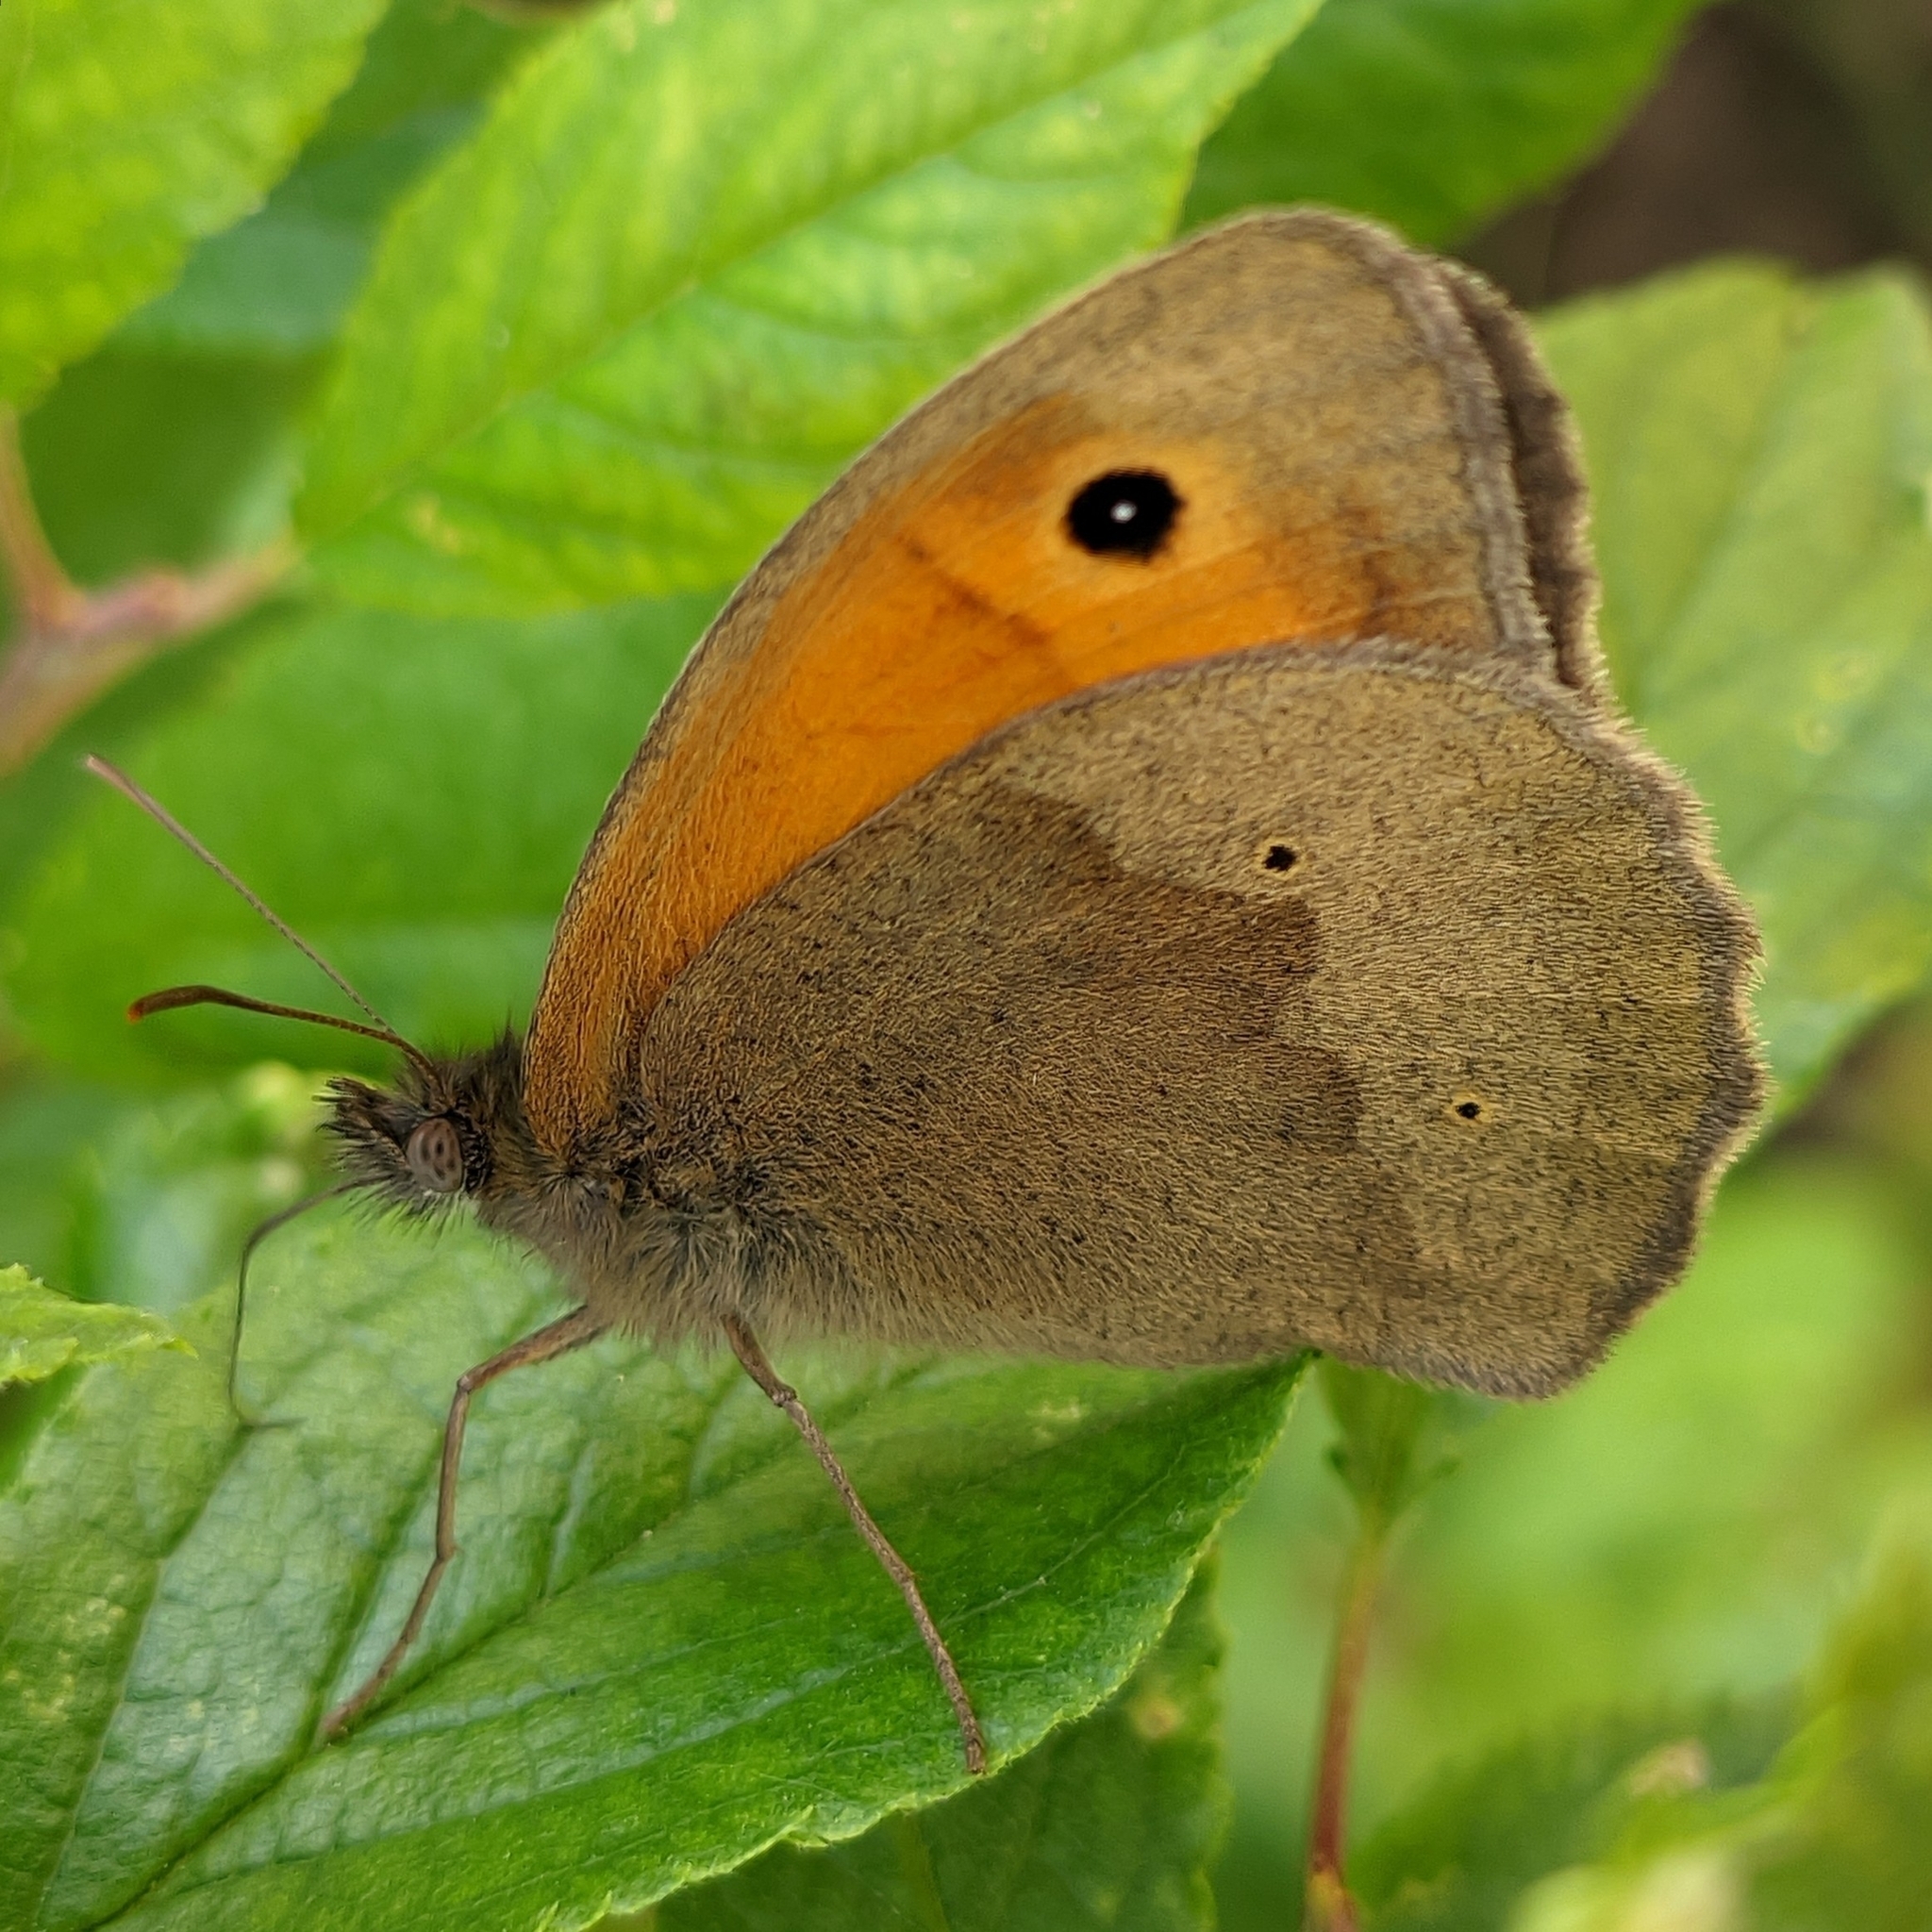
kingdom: Animalia
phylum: Arthropoda
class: Insecta
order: Lepidoptera
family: Nymphalidae
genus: Maniola
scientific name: Maniola jurtina
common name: Meadow brown
